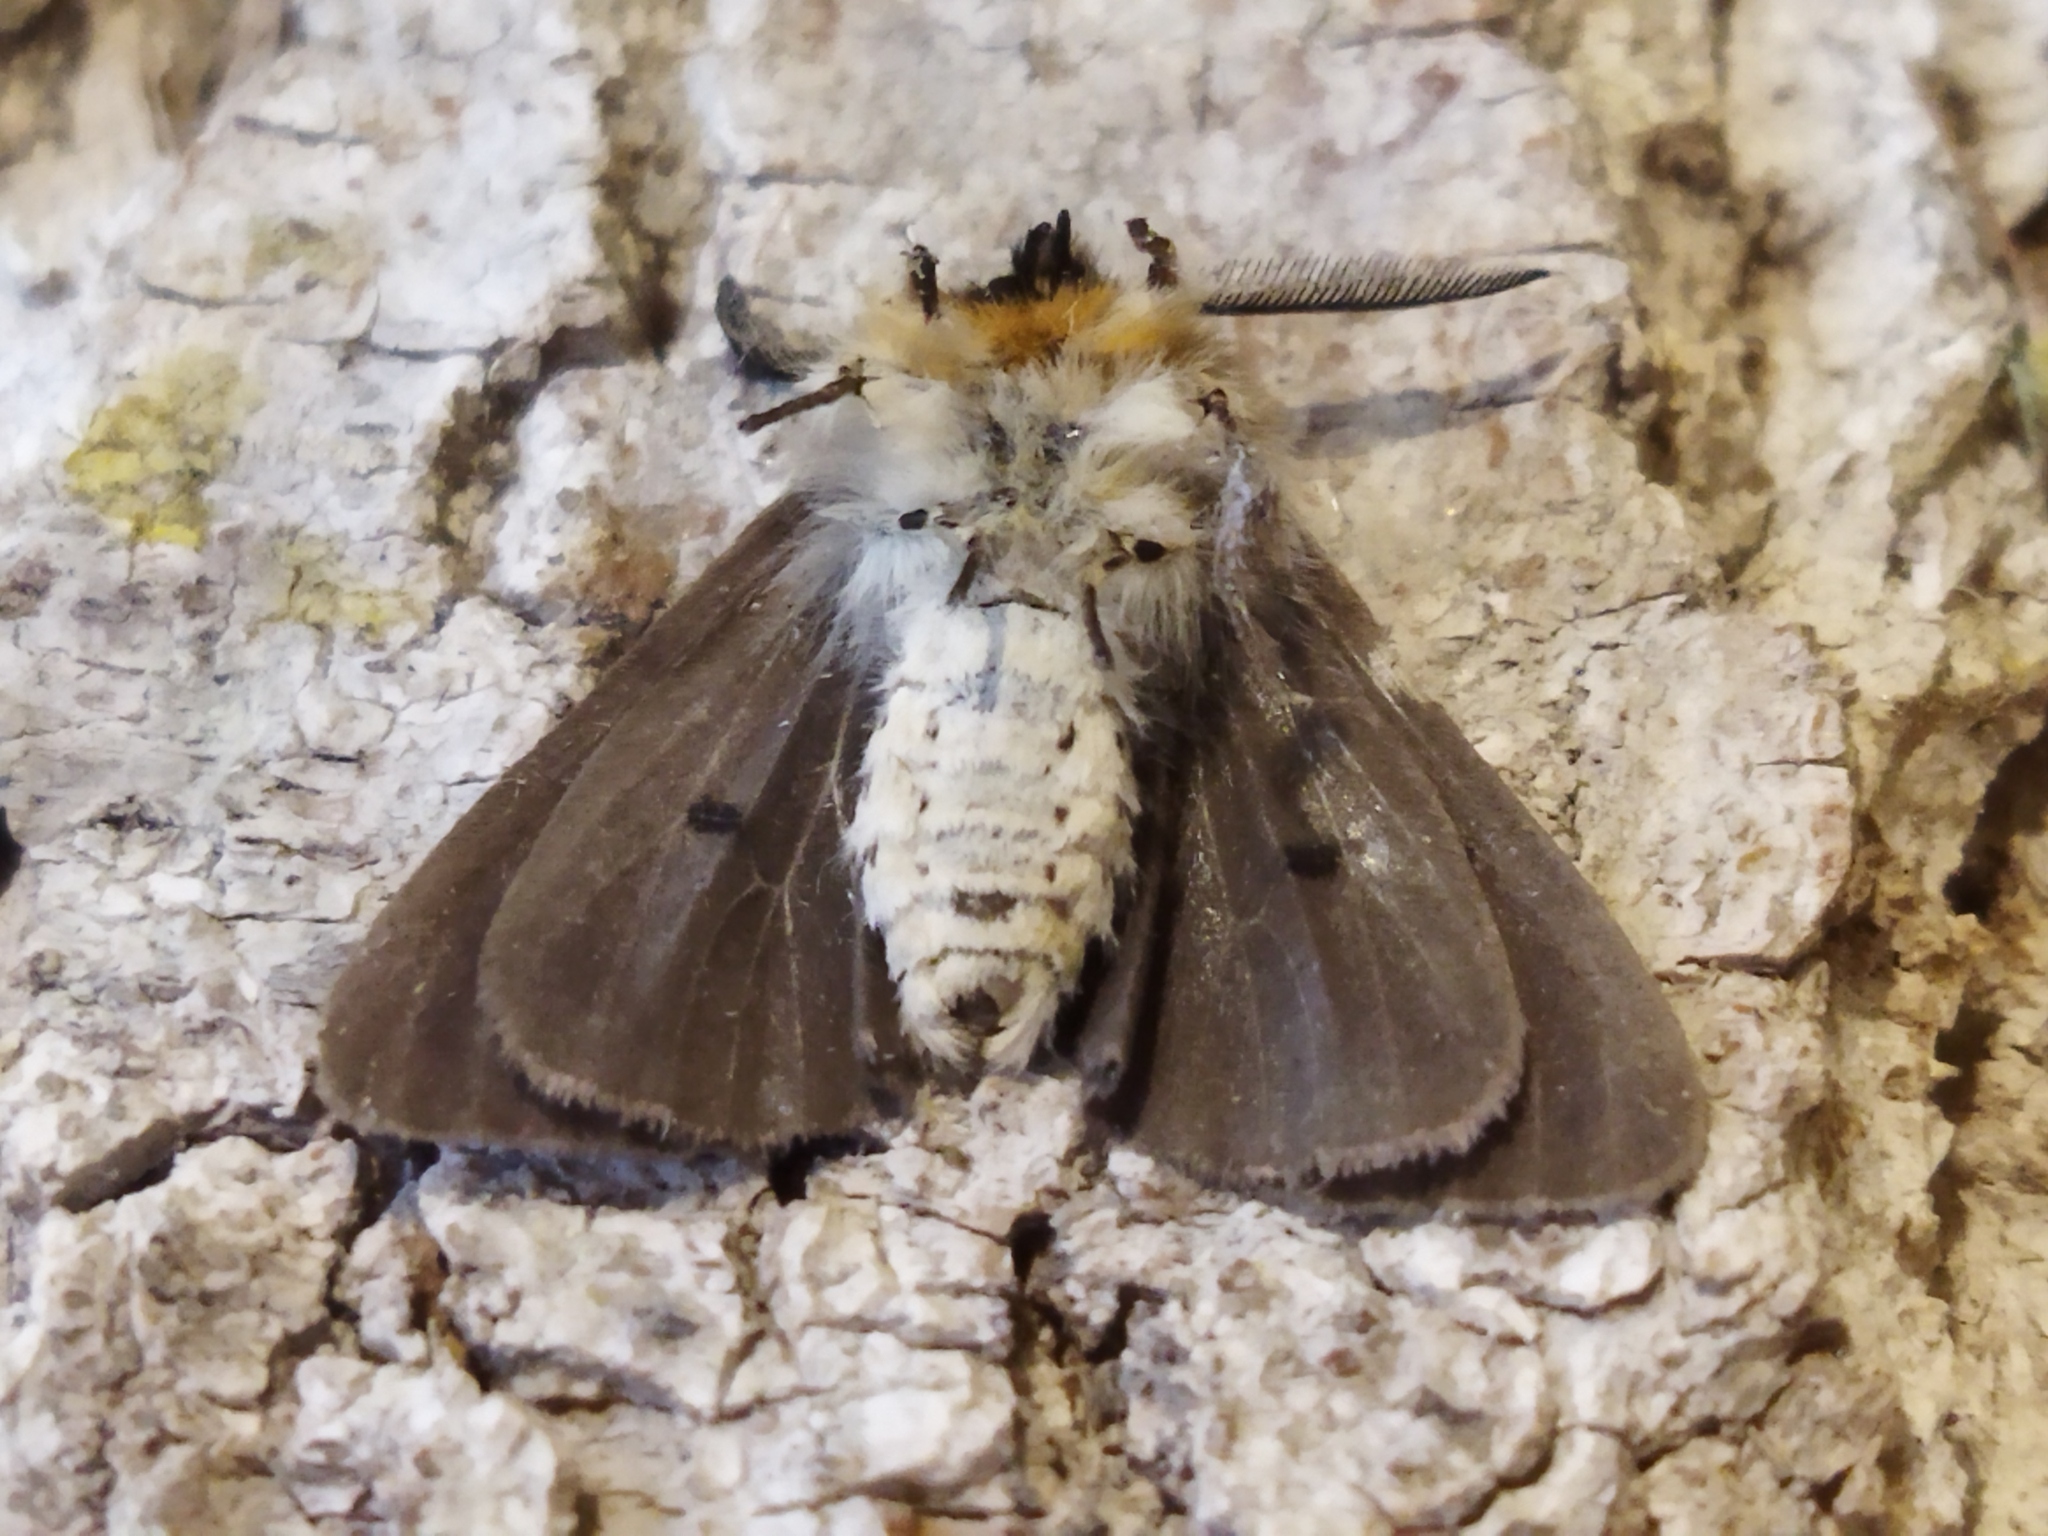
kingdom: Animalia
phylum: Arthropoda
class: Insecta
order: Lepidoptera
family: Erebidae
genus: Diaphora
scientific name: Diaphora mendica
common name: Muslin moth
